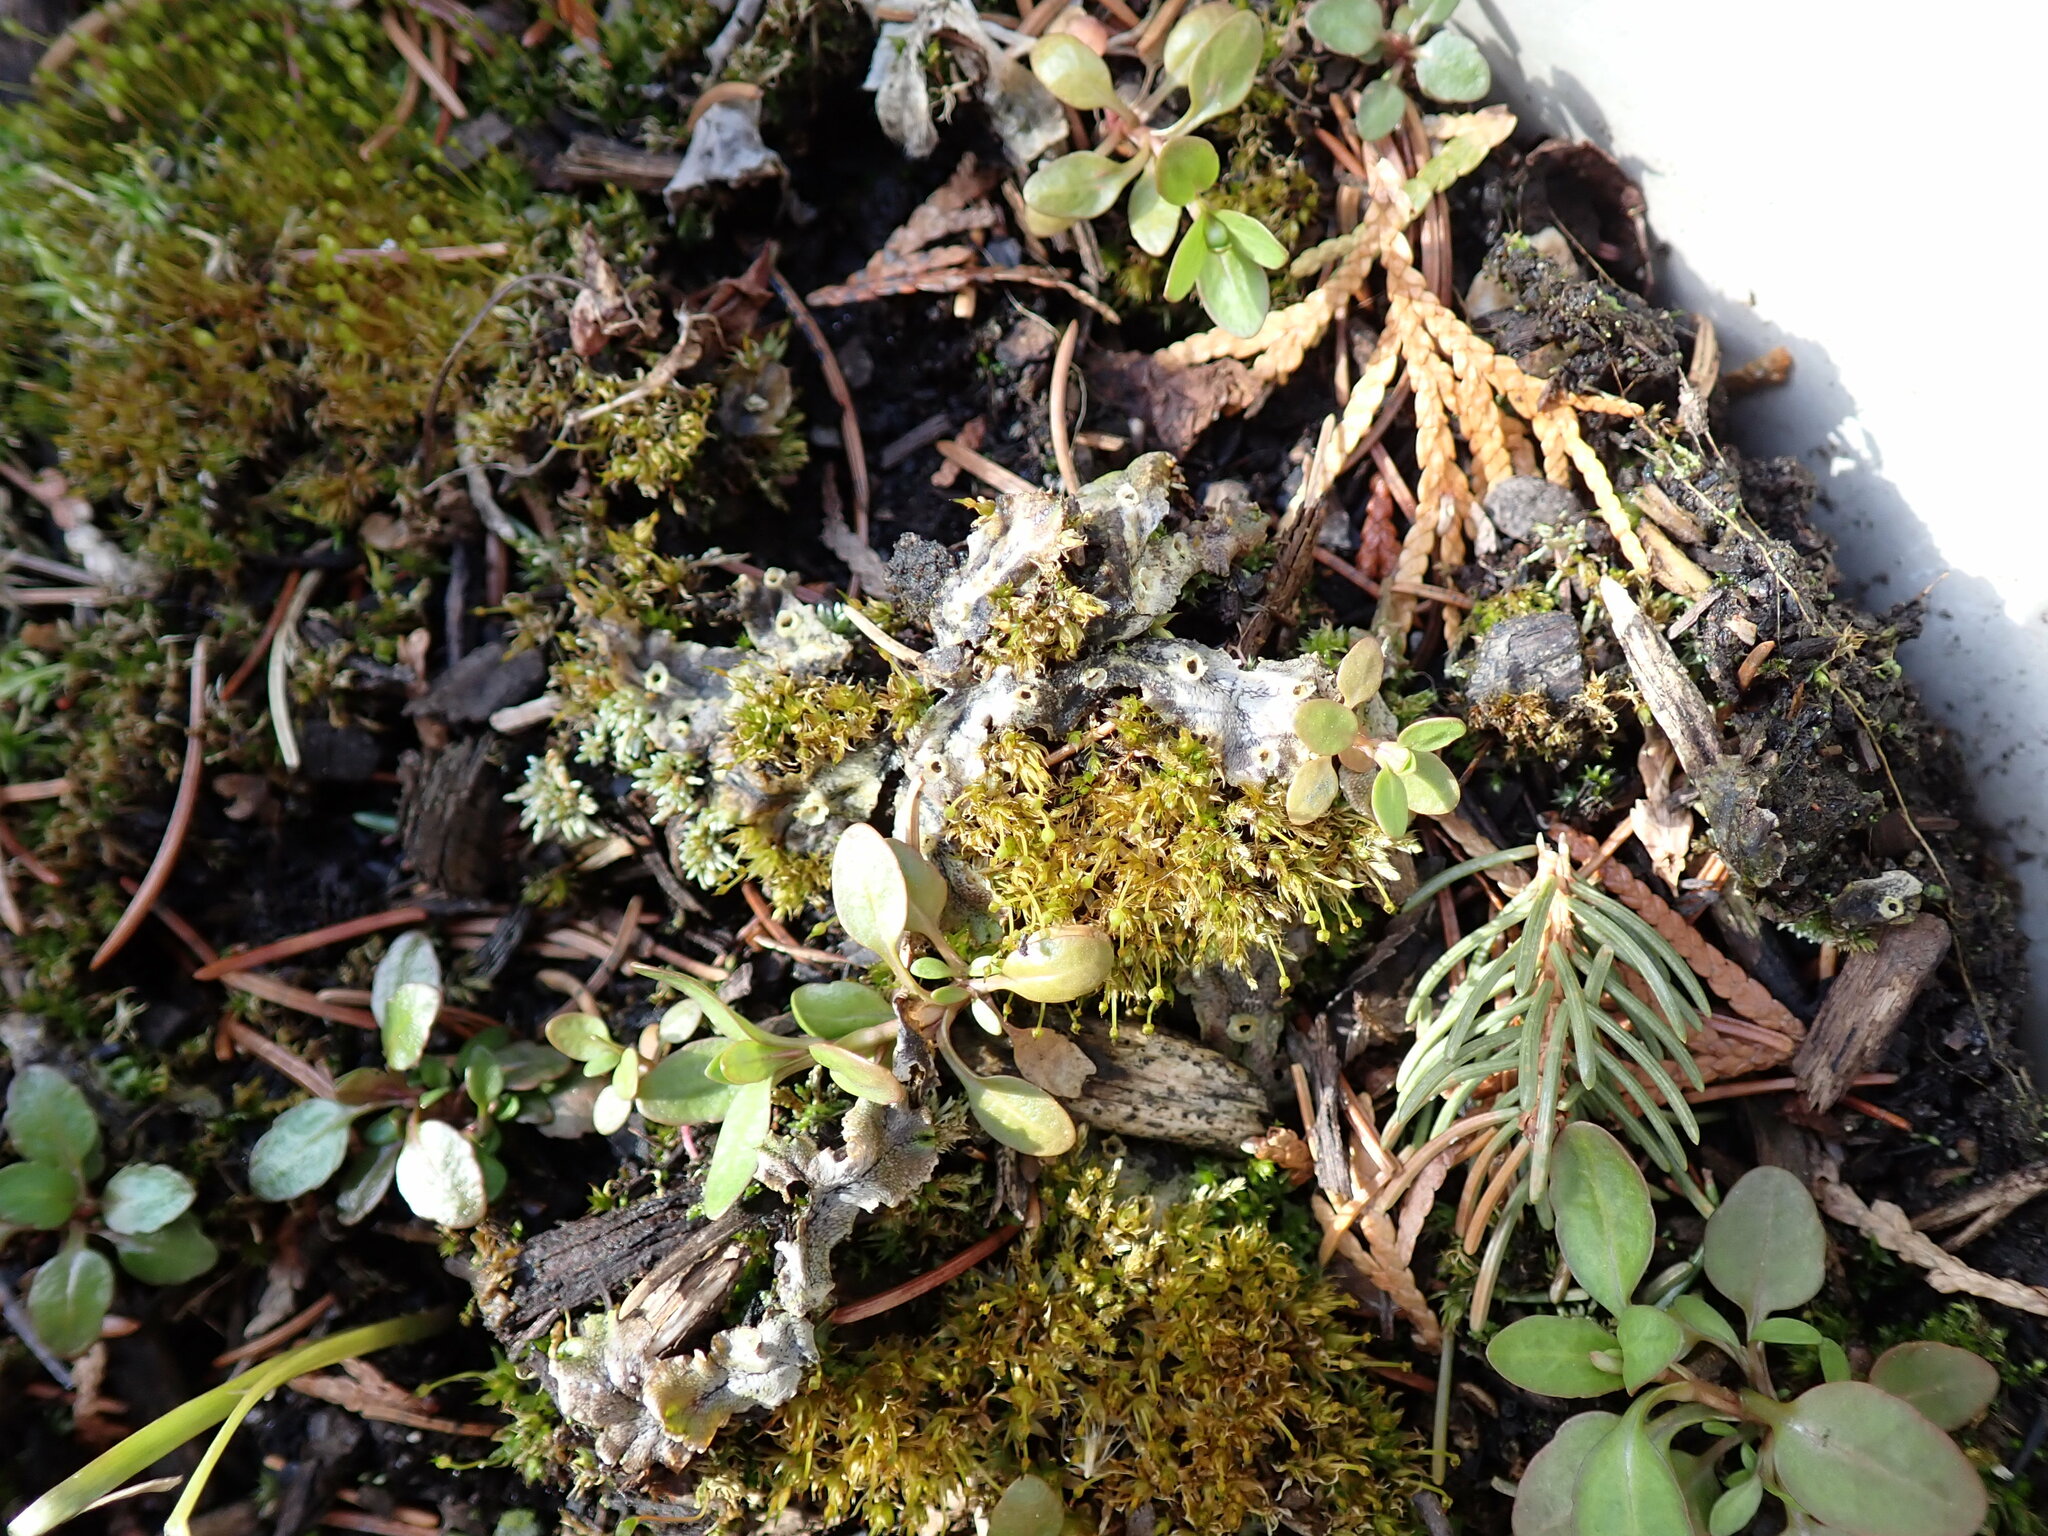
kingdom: Plantae
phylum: Marchantiophyta
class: Marchantiopsida
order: Marchantiales
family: Marchantiaceae
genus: Marchantia
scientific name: Marchantia polymorpha
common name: Common liverwort
